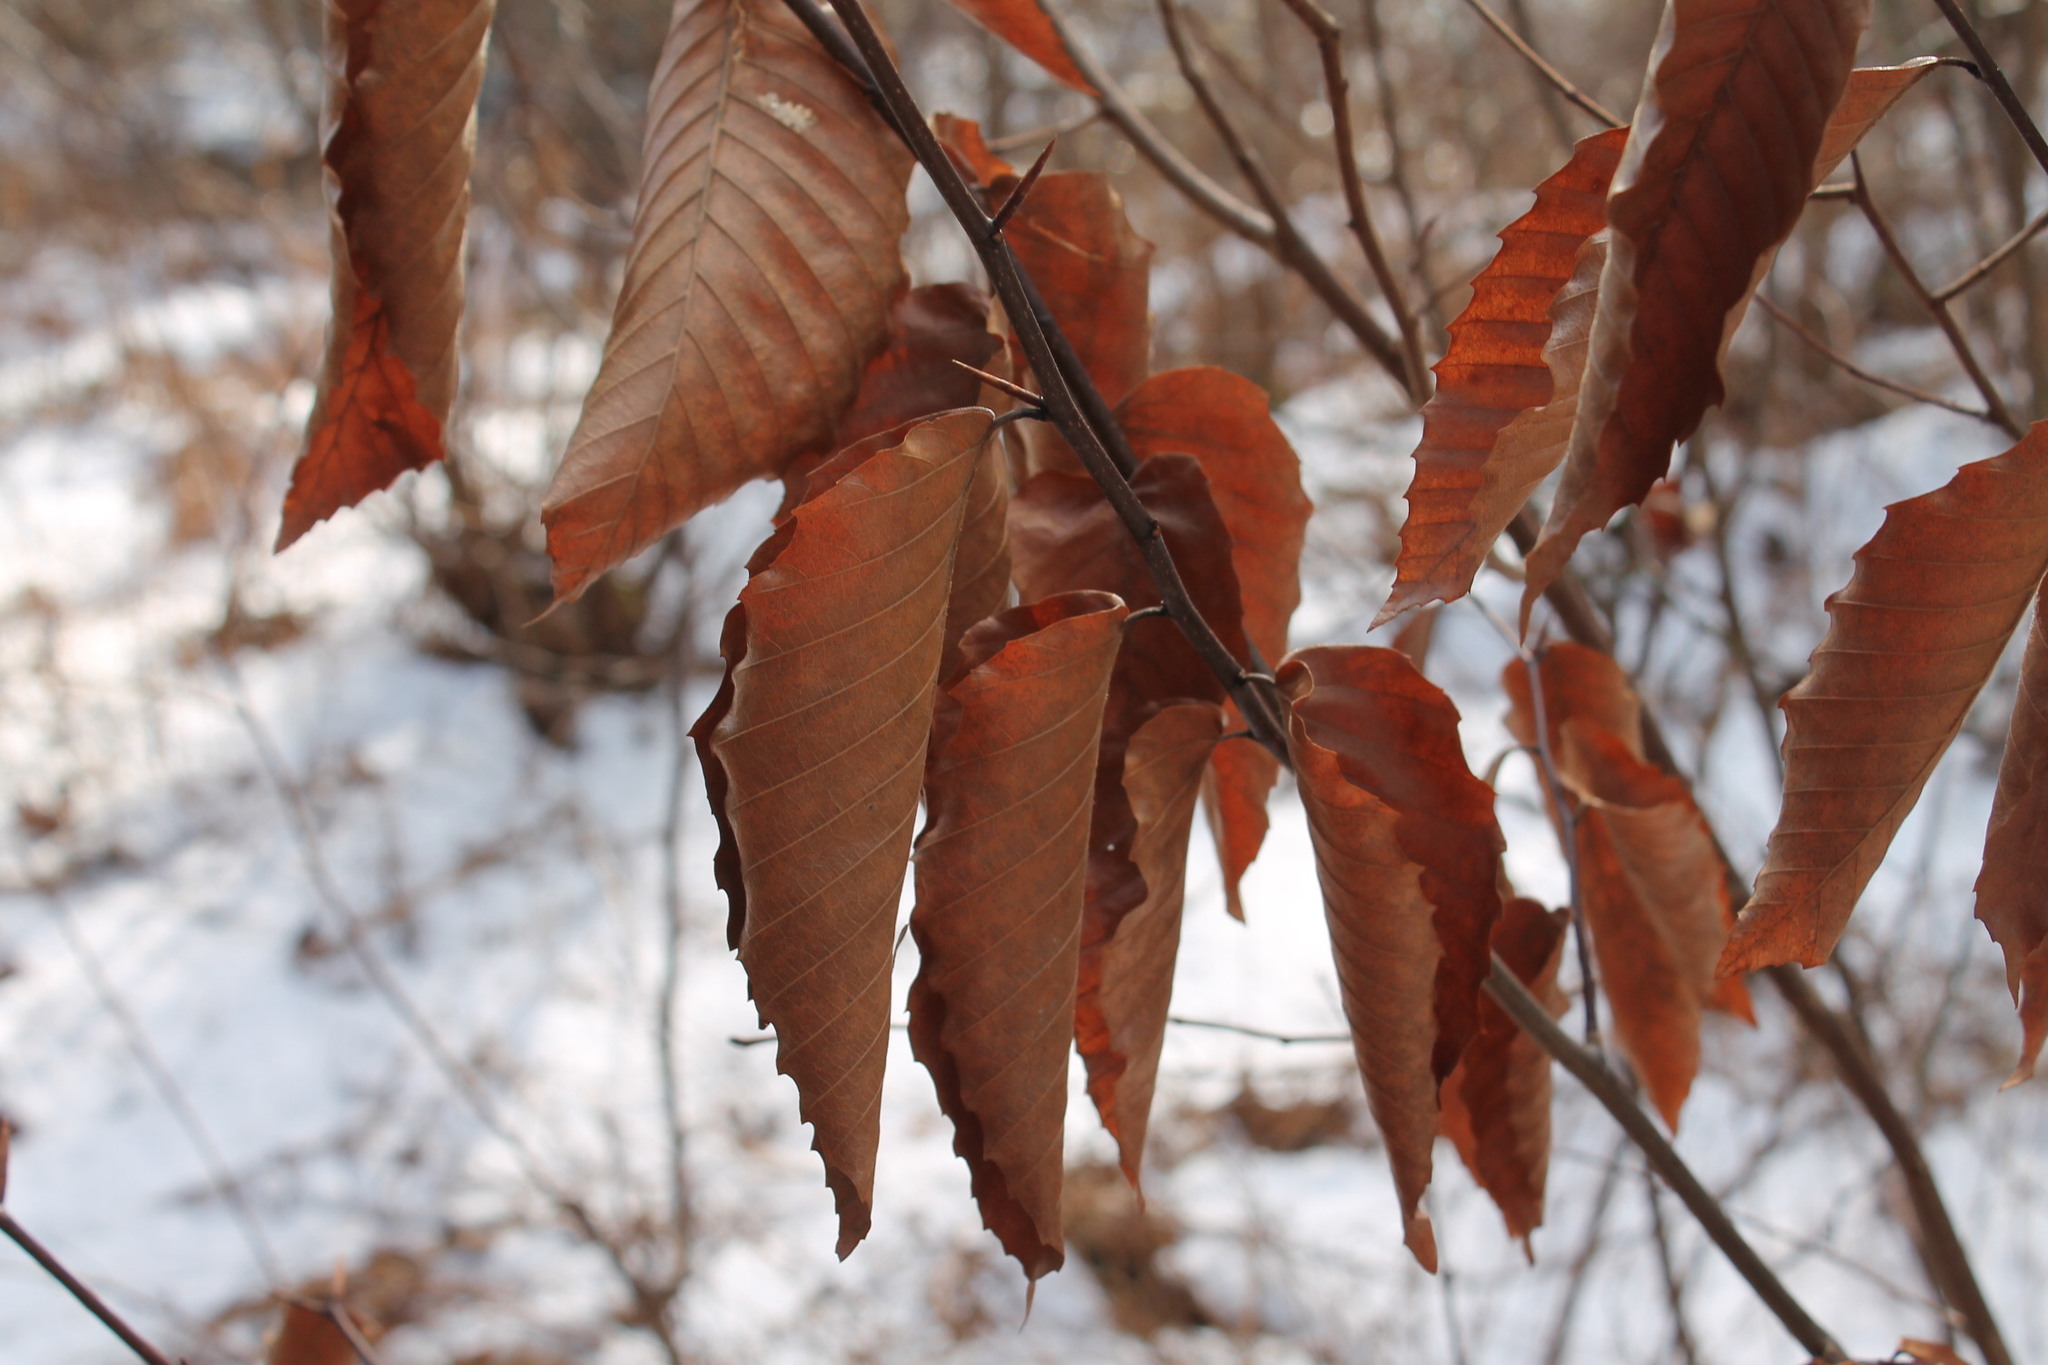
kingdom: Plantae
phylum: Tracheophyta
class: Magnoliopsida
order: Fagales
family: Fagaceae
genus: Fagus
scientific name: Fagus grandifolia
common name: American beech
